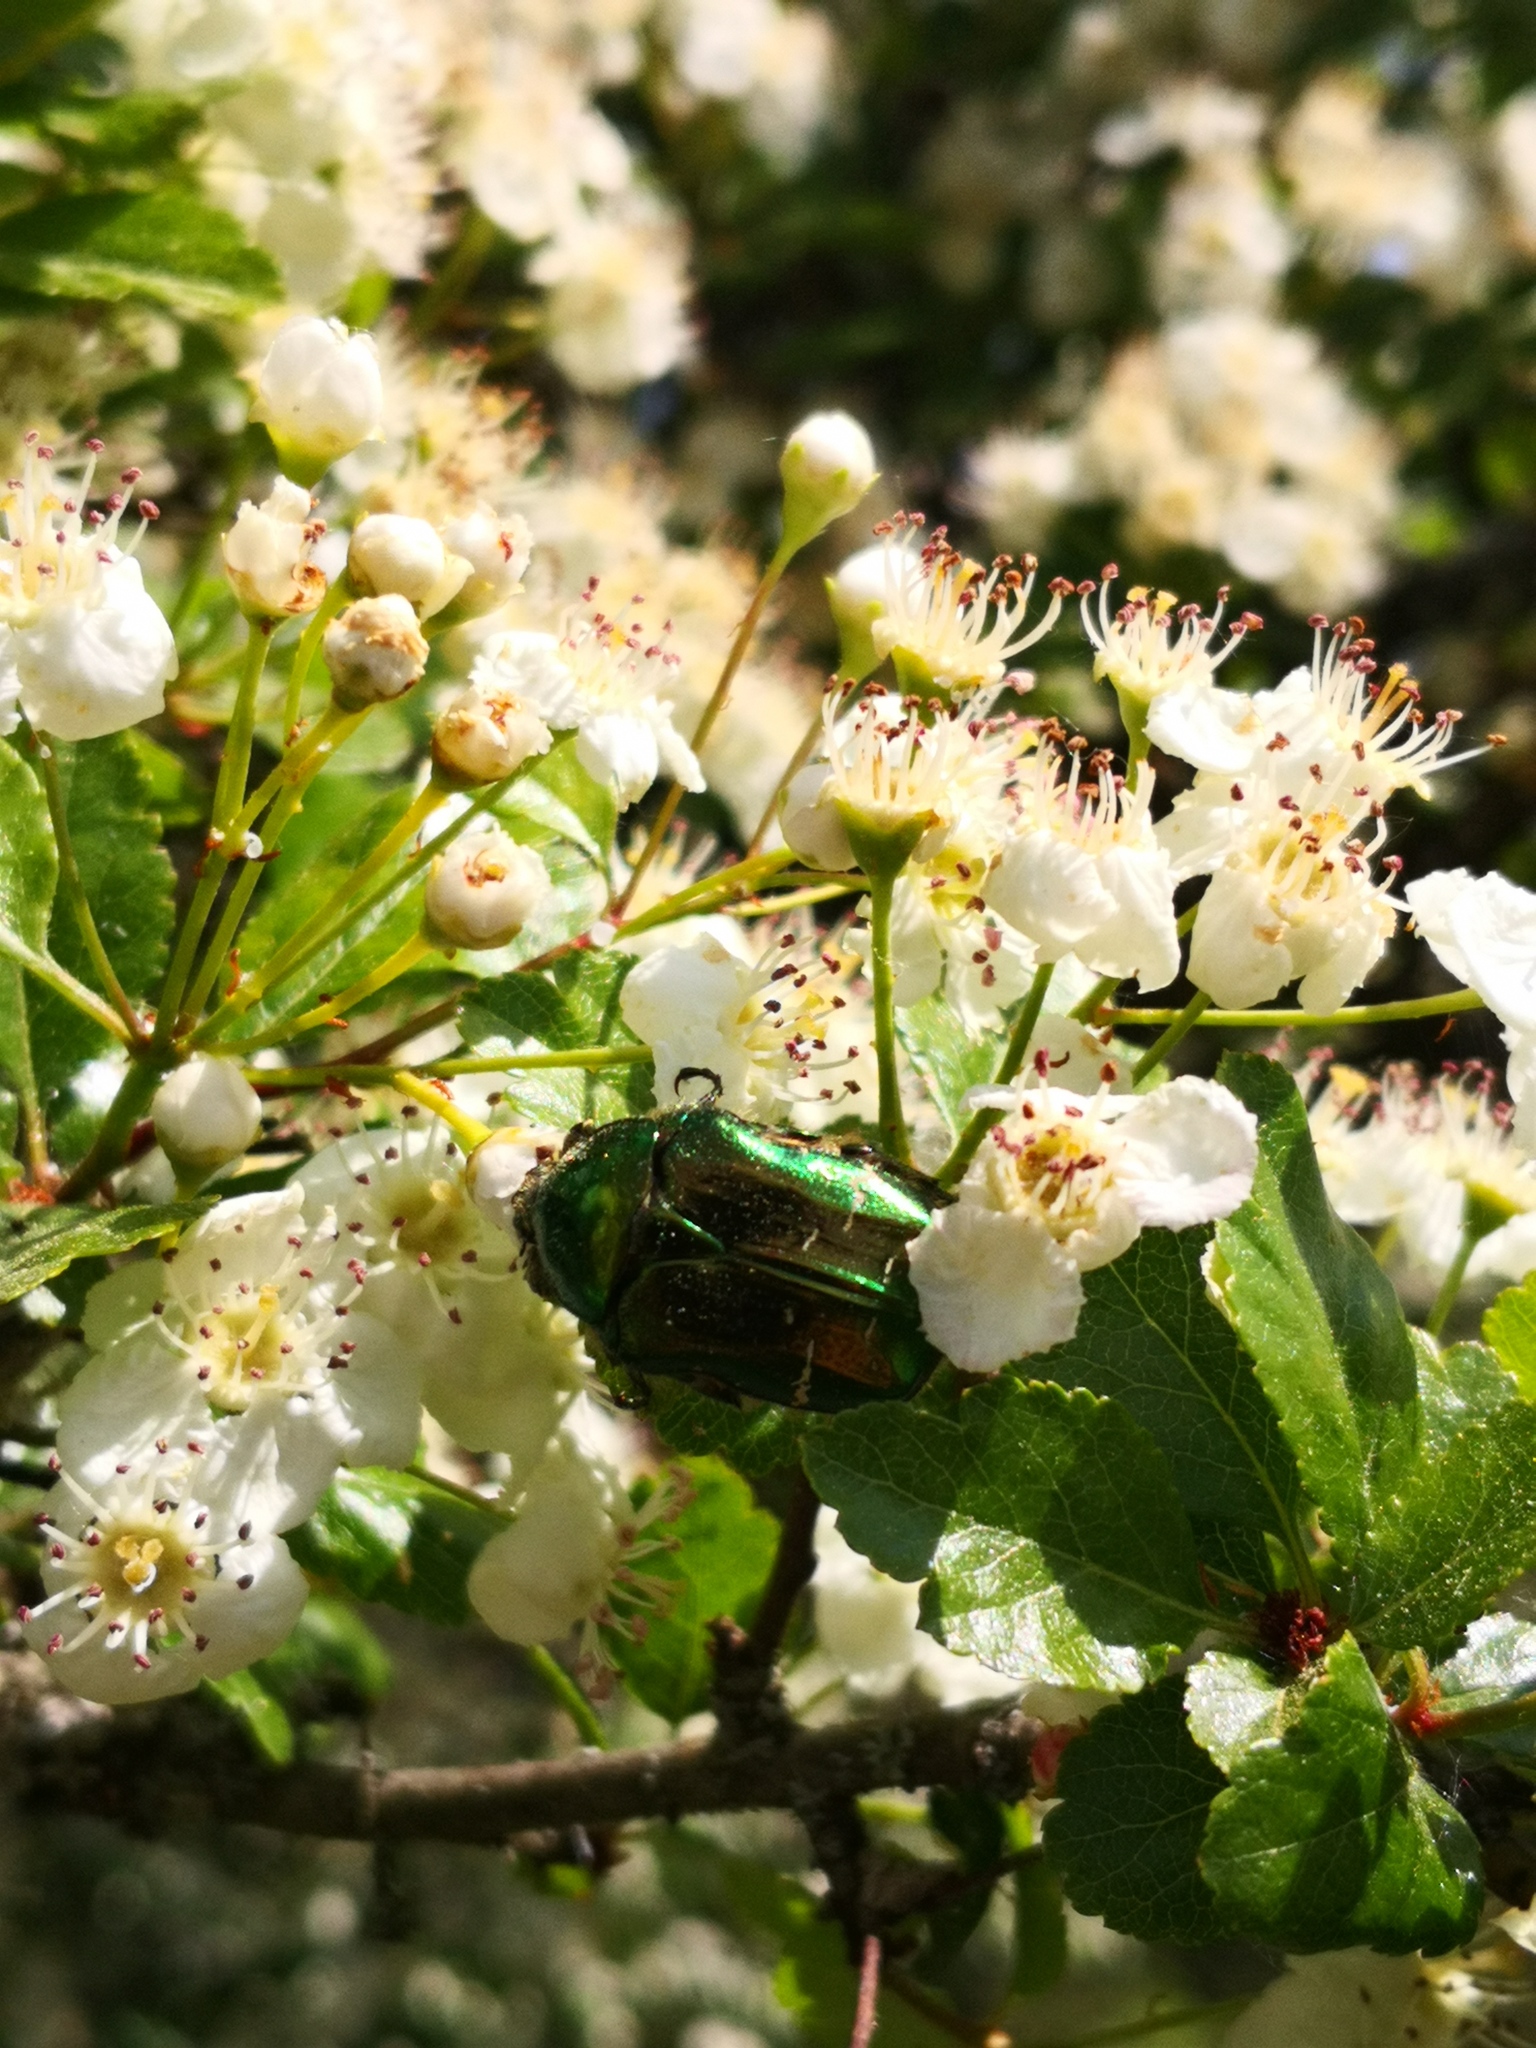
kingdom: Animalia
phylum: Arthropoda
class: Insecta
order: Coleoptera
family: Scarabaeidae
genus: Cetonia
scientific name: Cetonia aurata
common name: Rose chafer
